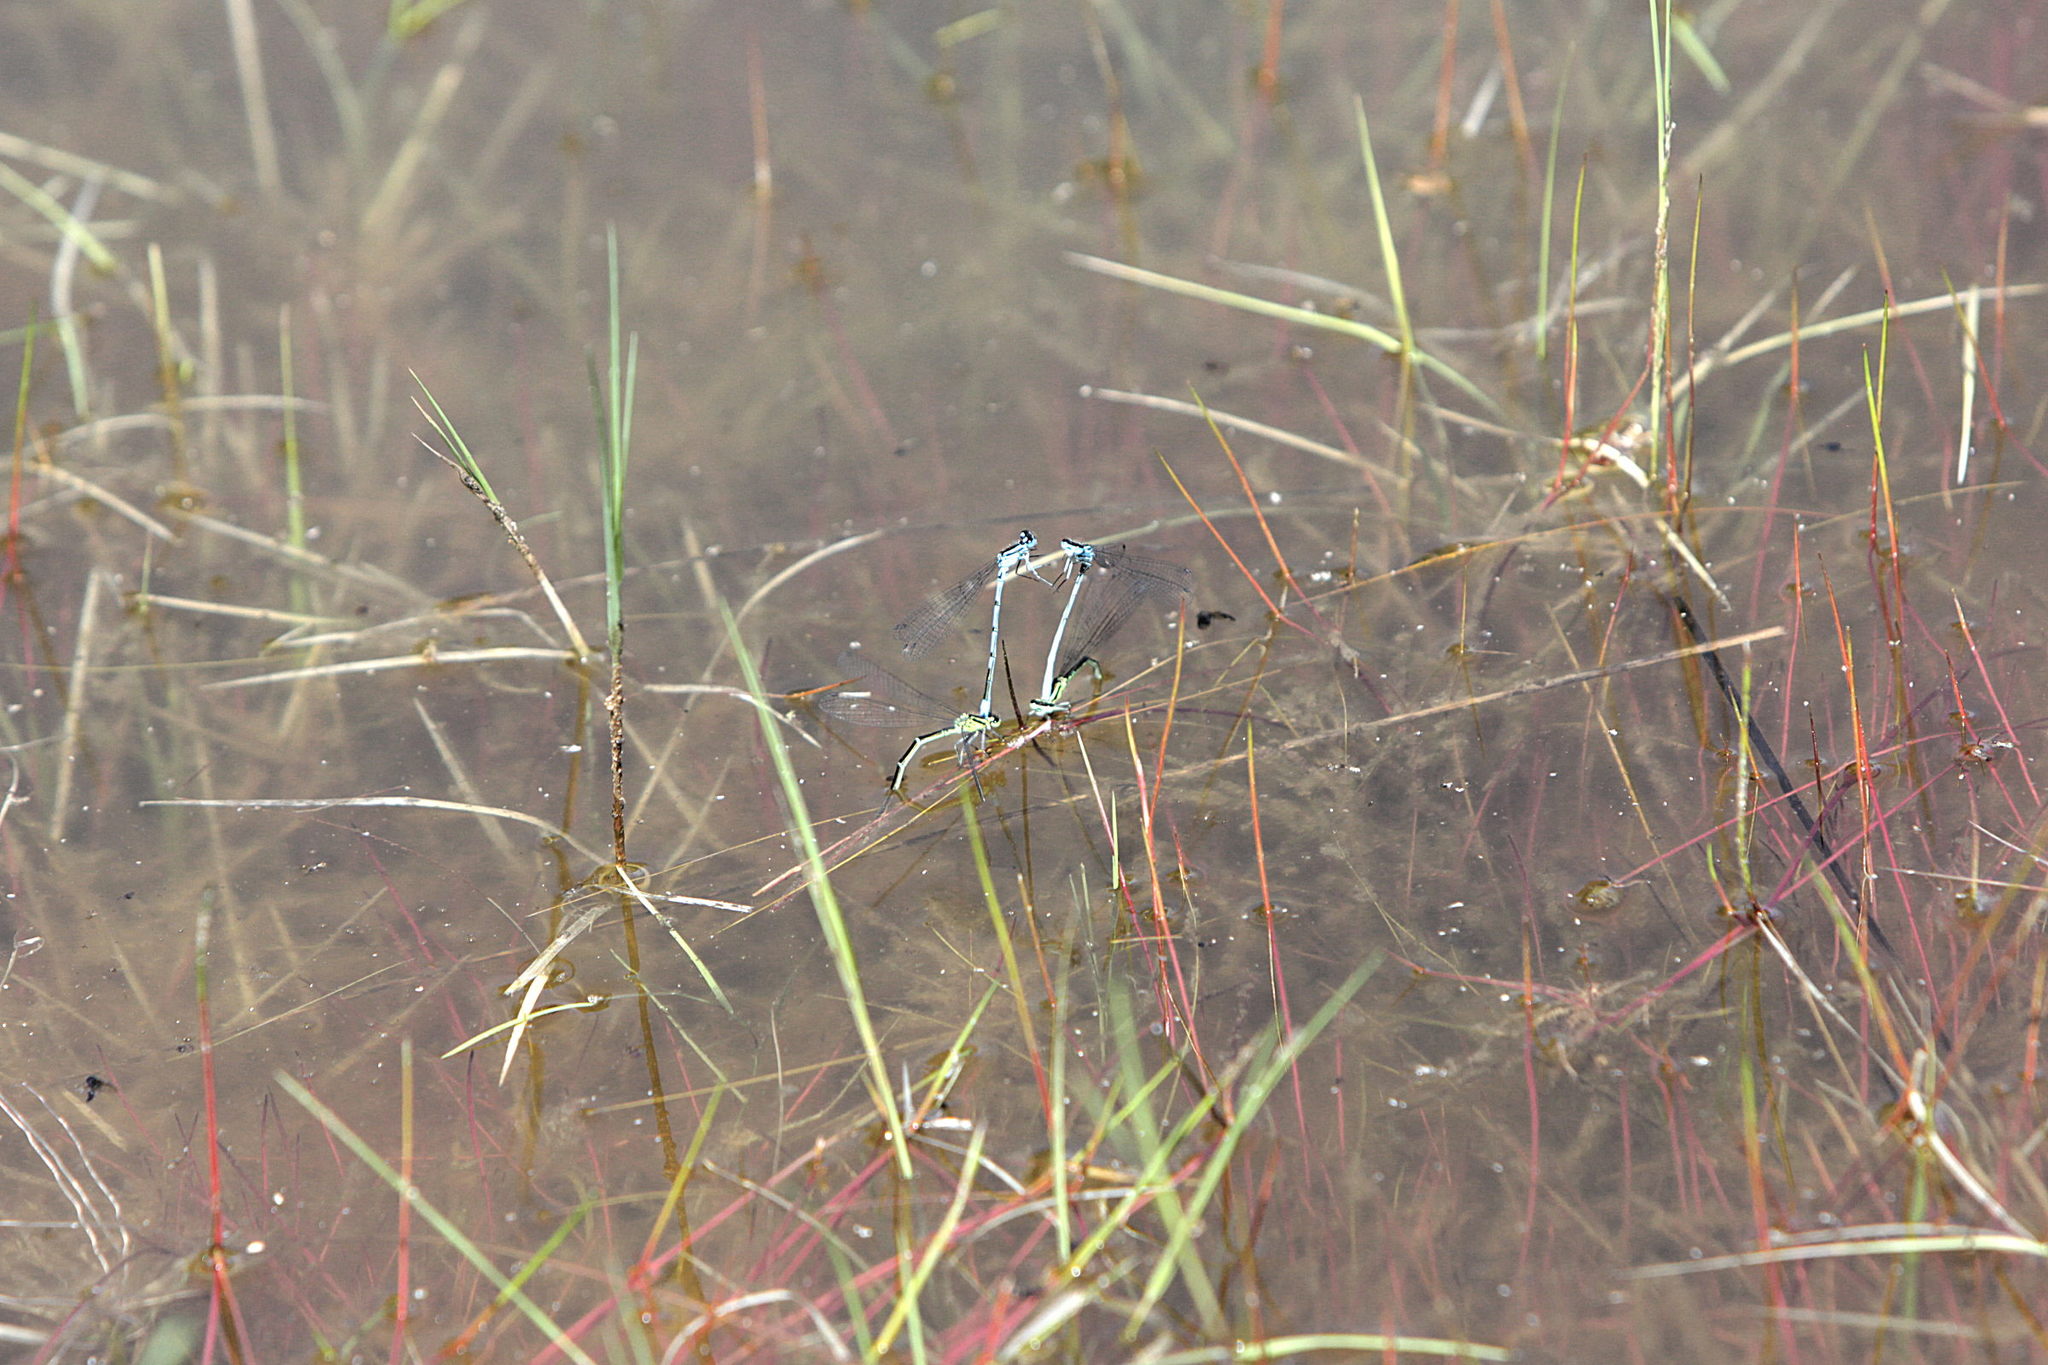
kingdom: Animalia
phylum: Arthropoda
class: Insecta
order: Odonata
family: Coenagrionidae
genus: Coenagrion
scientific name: Coenagrion puella
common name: Azure damselfly
